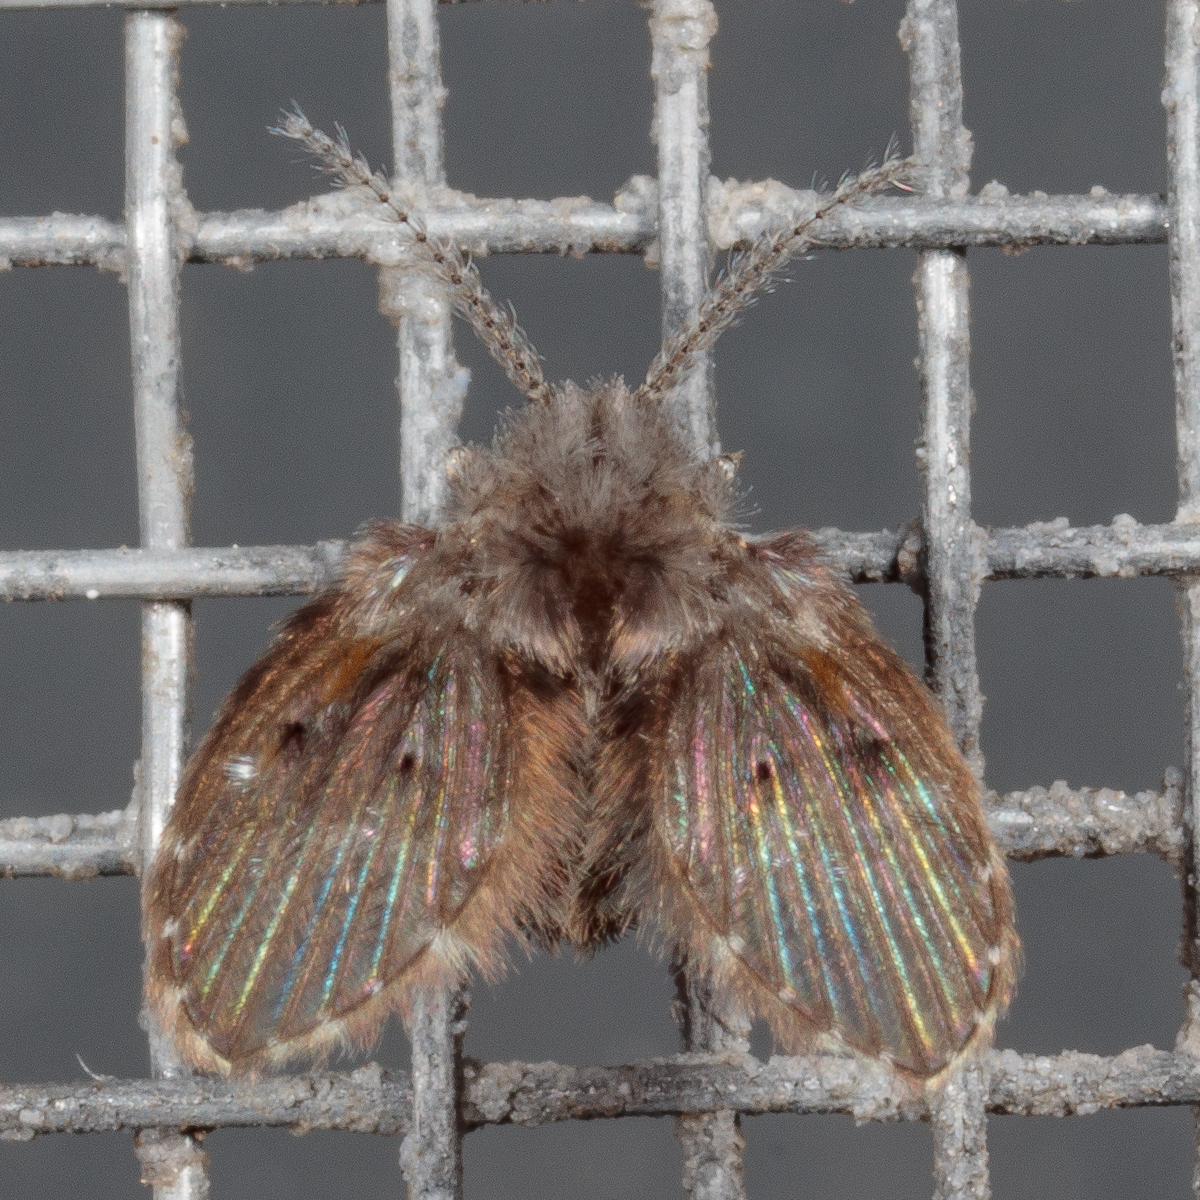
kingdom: Animalia
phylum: Arthropoda
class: Insecta
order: Diptera
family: Psychodidae
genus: Clogmia
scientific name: Clogmia albipunctatus
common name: White-spotted moth fly
